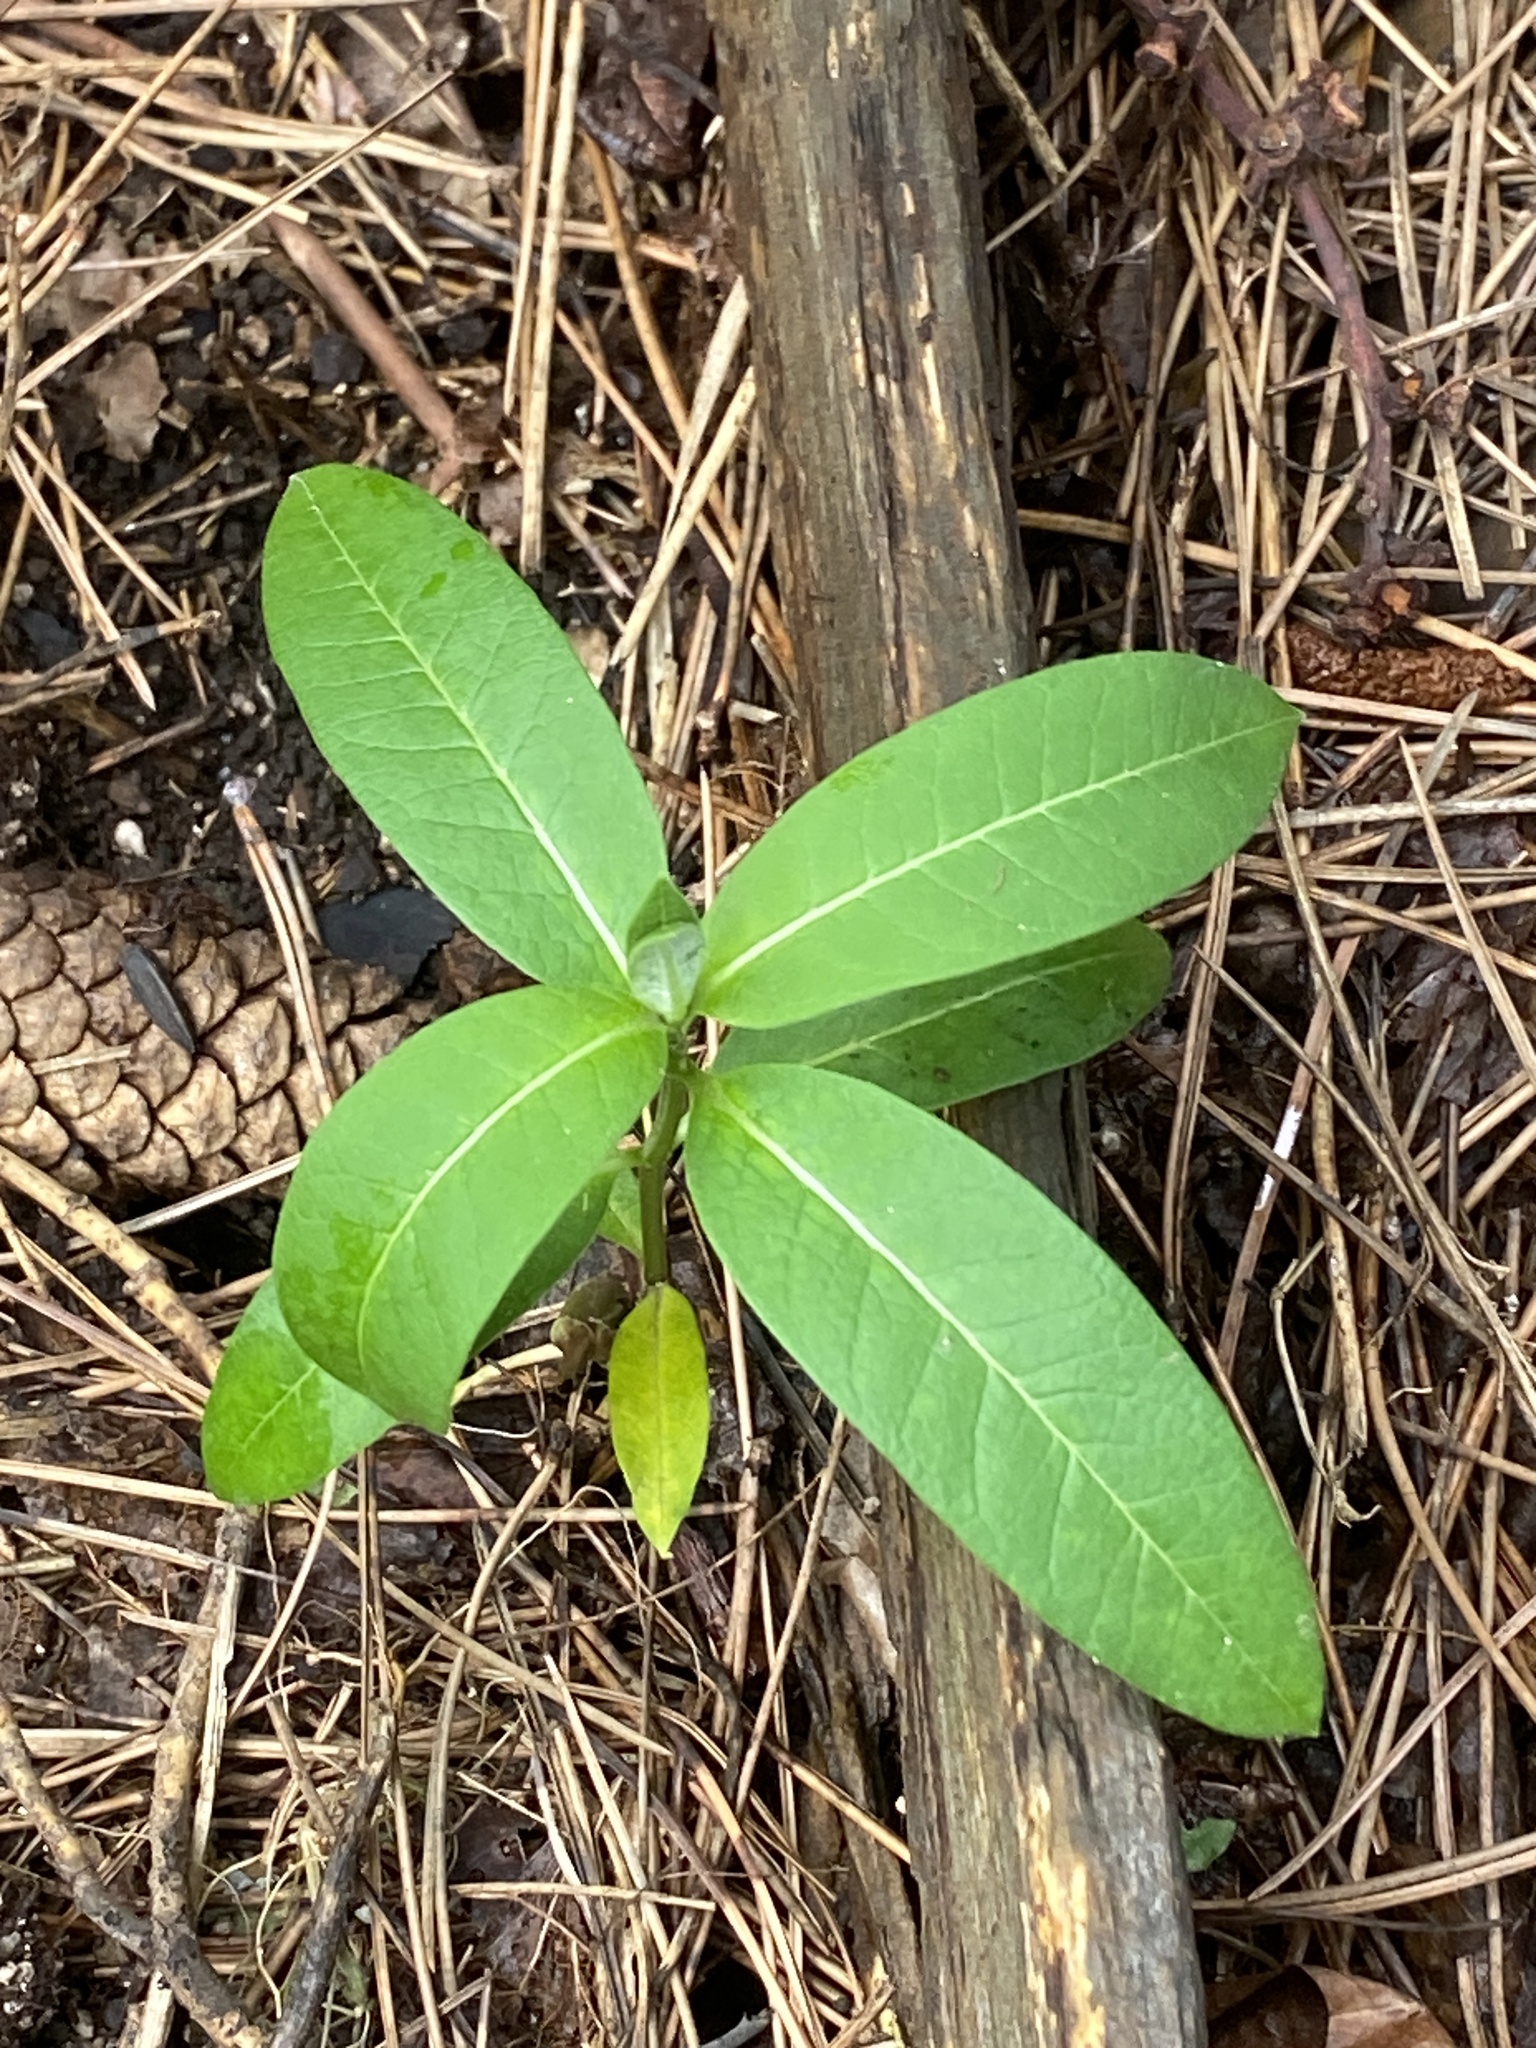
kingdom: Plantae
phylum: Tracheophyta
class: Magnoliopsida
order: Gentianales
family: Apocynaceae
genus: Asclepias
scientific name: Asclepias syriaca
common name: Common milkweed
